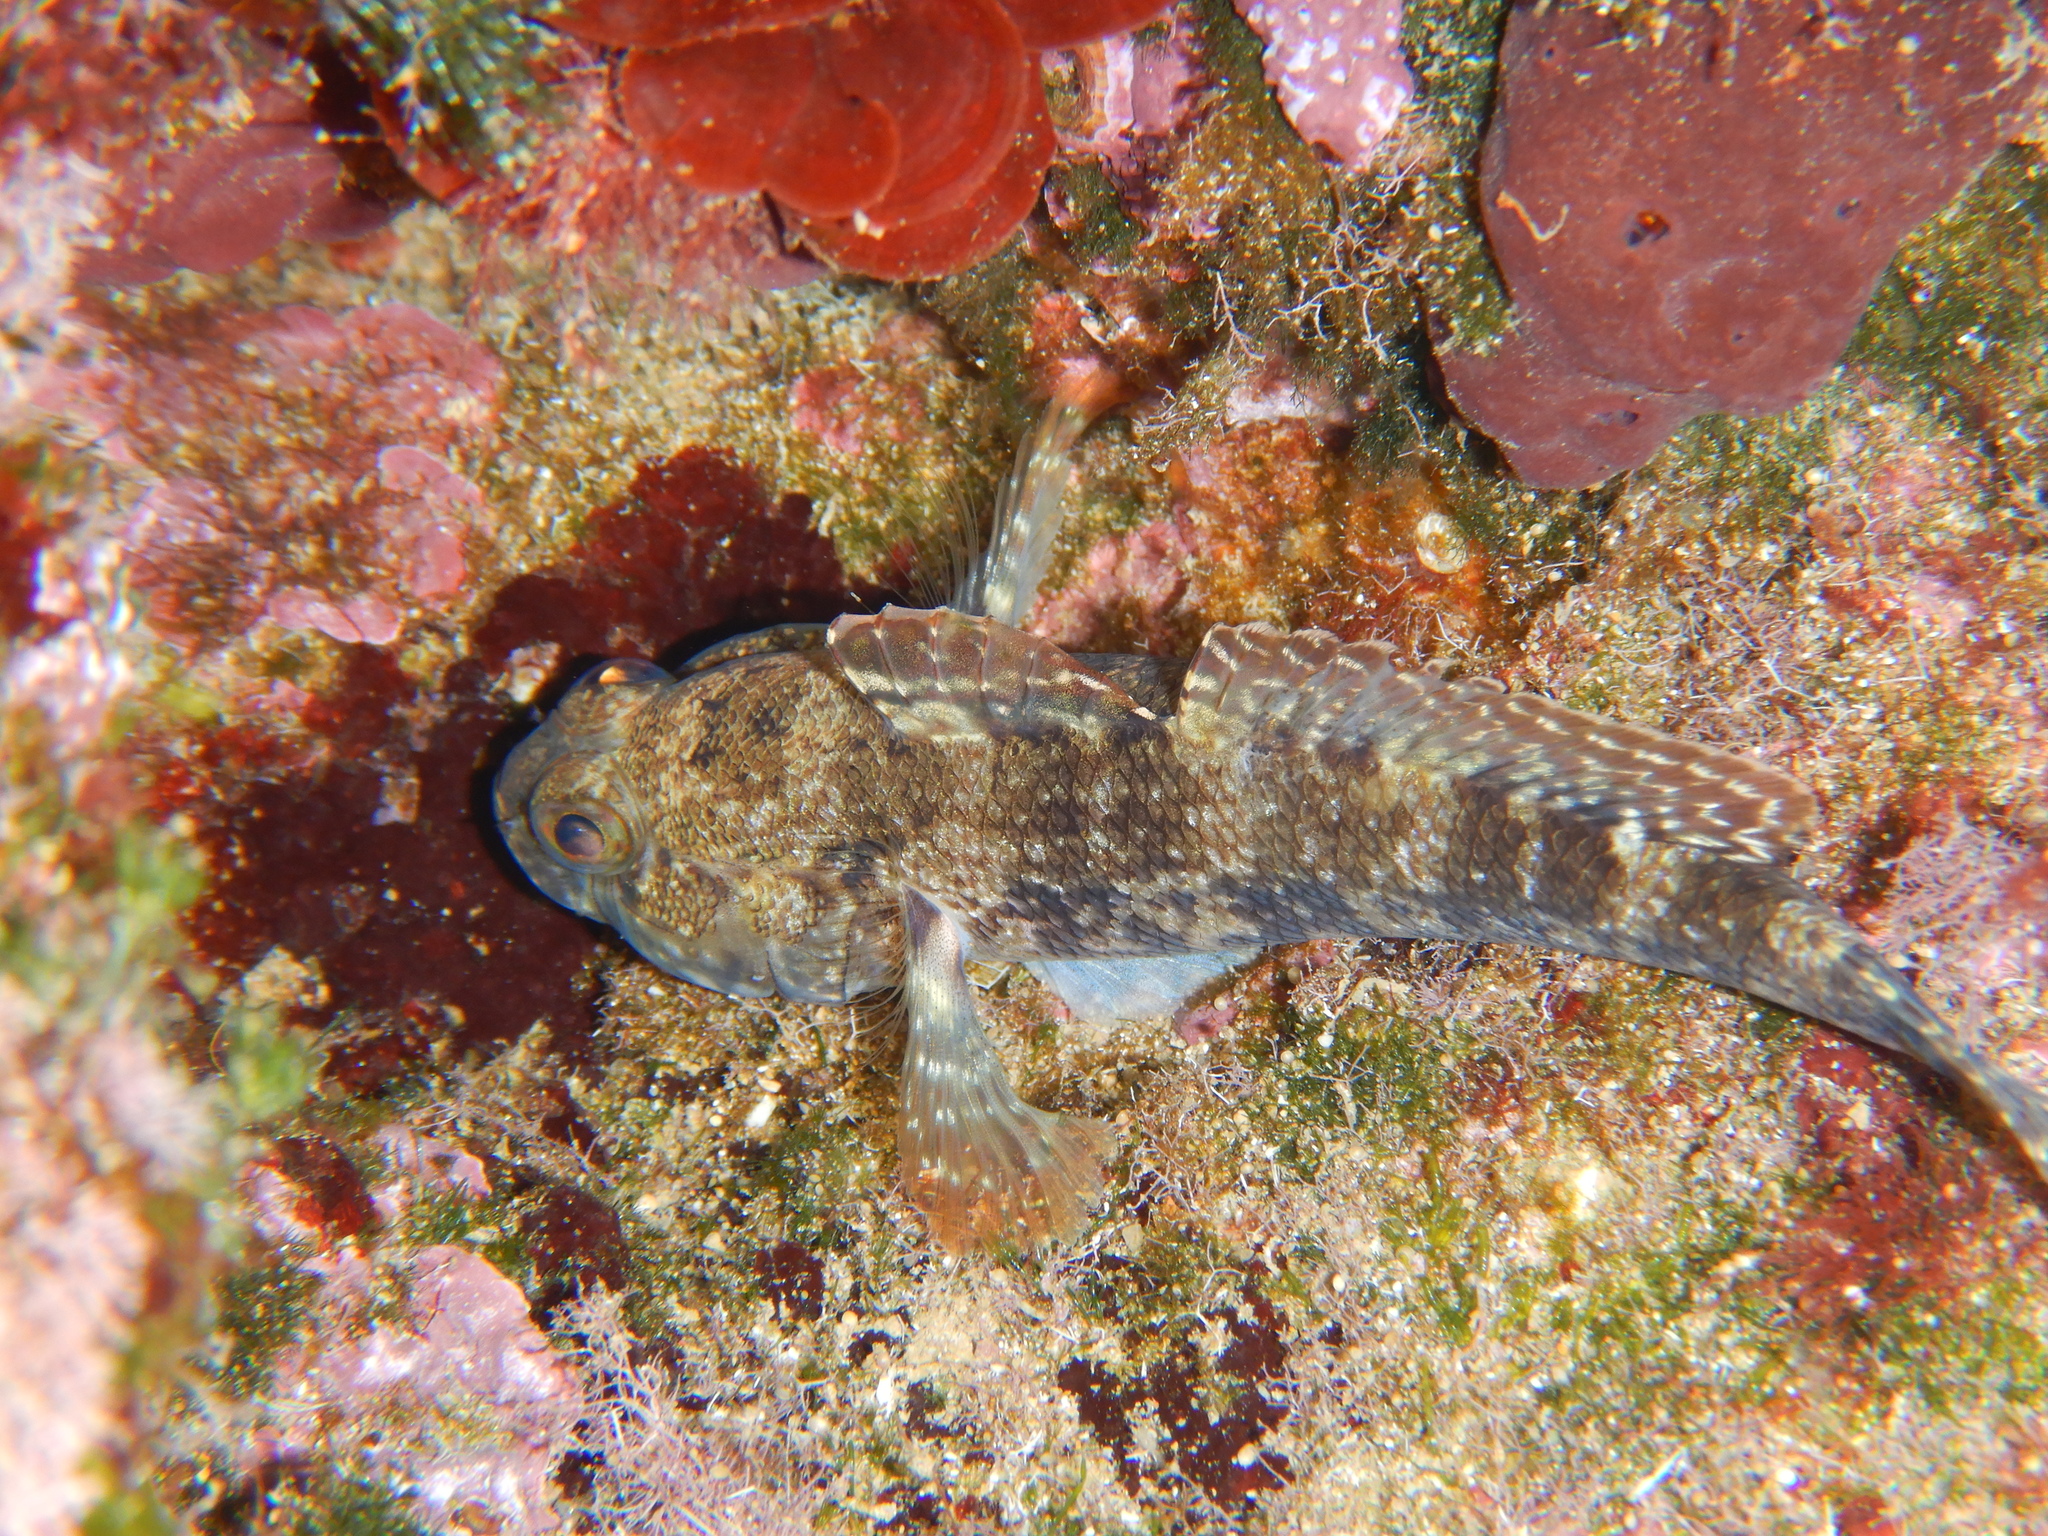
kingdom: Animalia
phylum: Chordata
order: Perciformes
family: Gobiidae
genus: Gobius
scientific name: Gobius paganellus
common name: Rock goby
